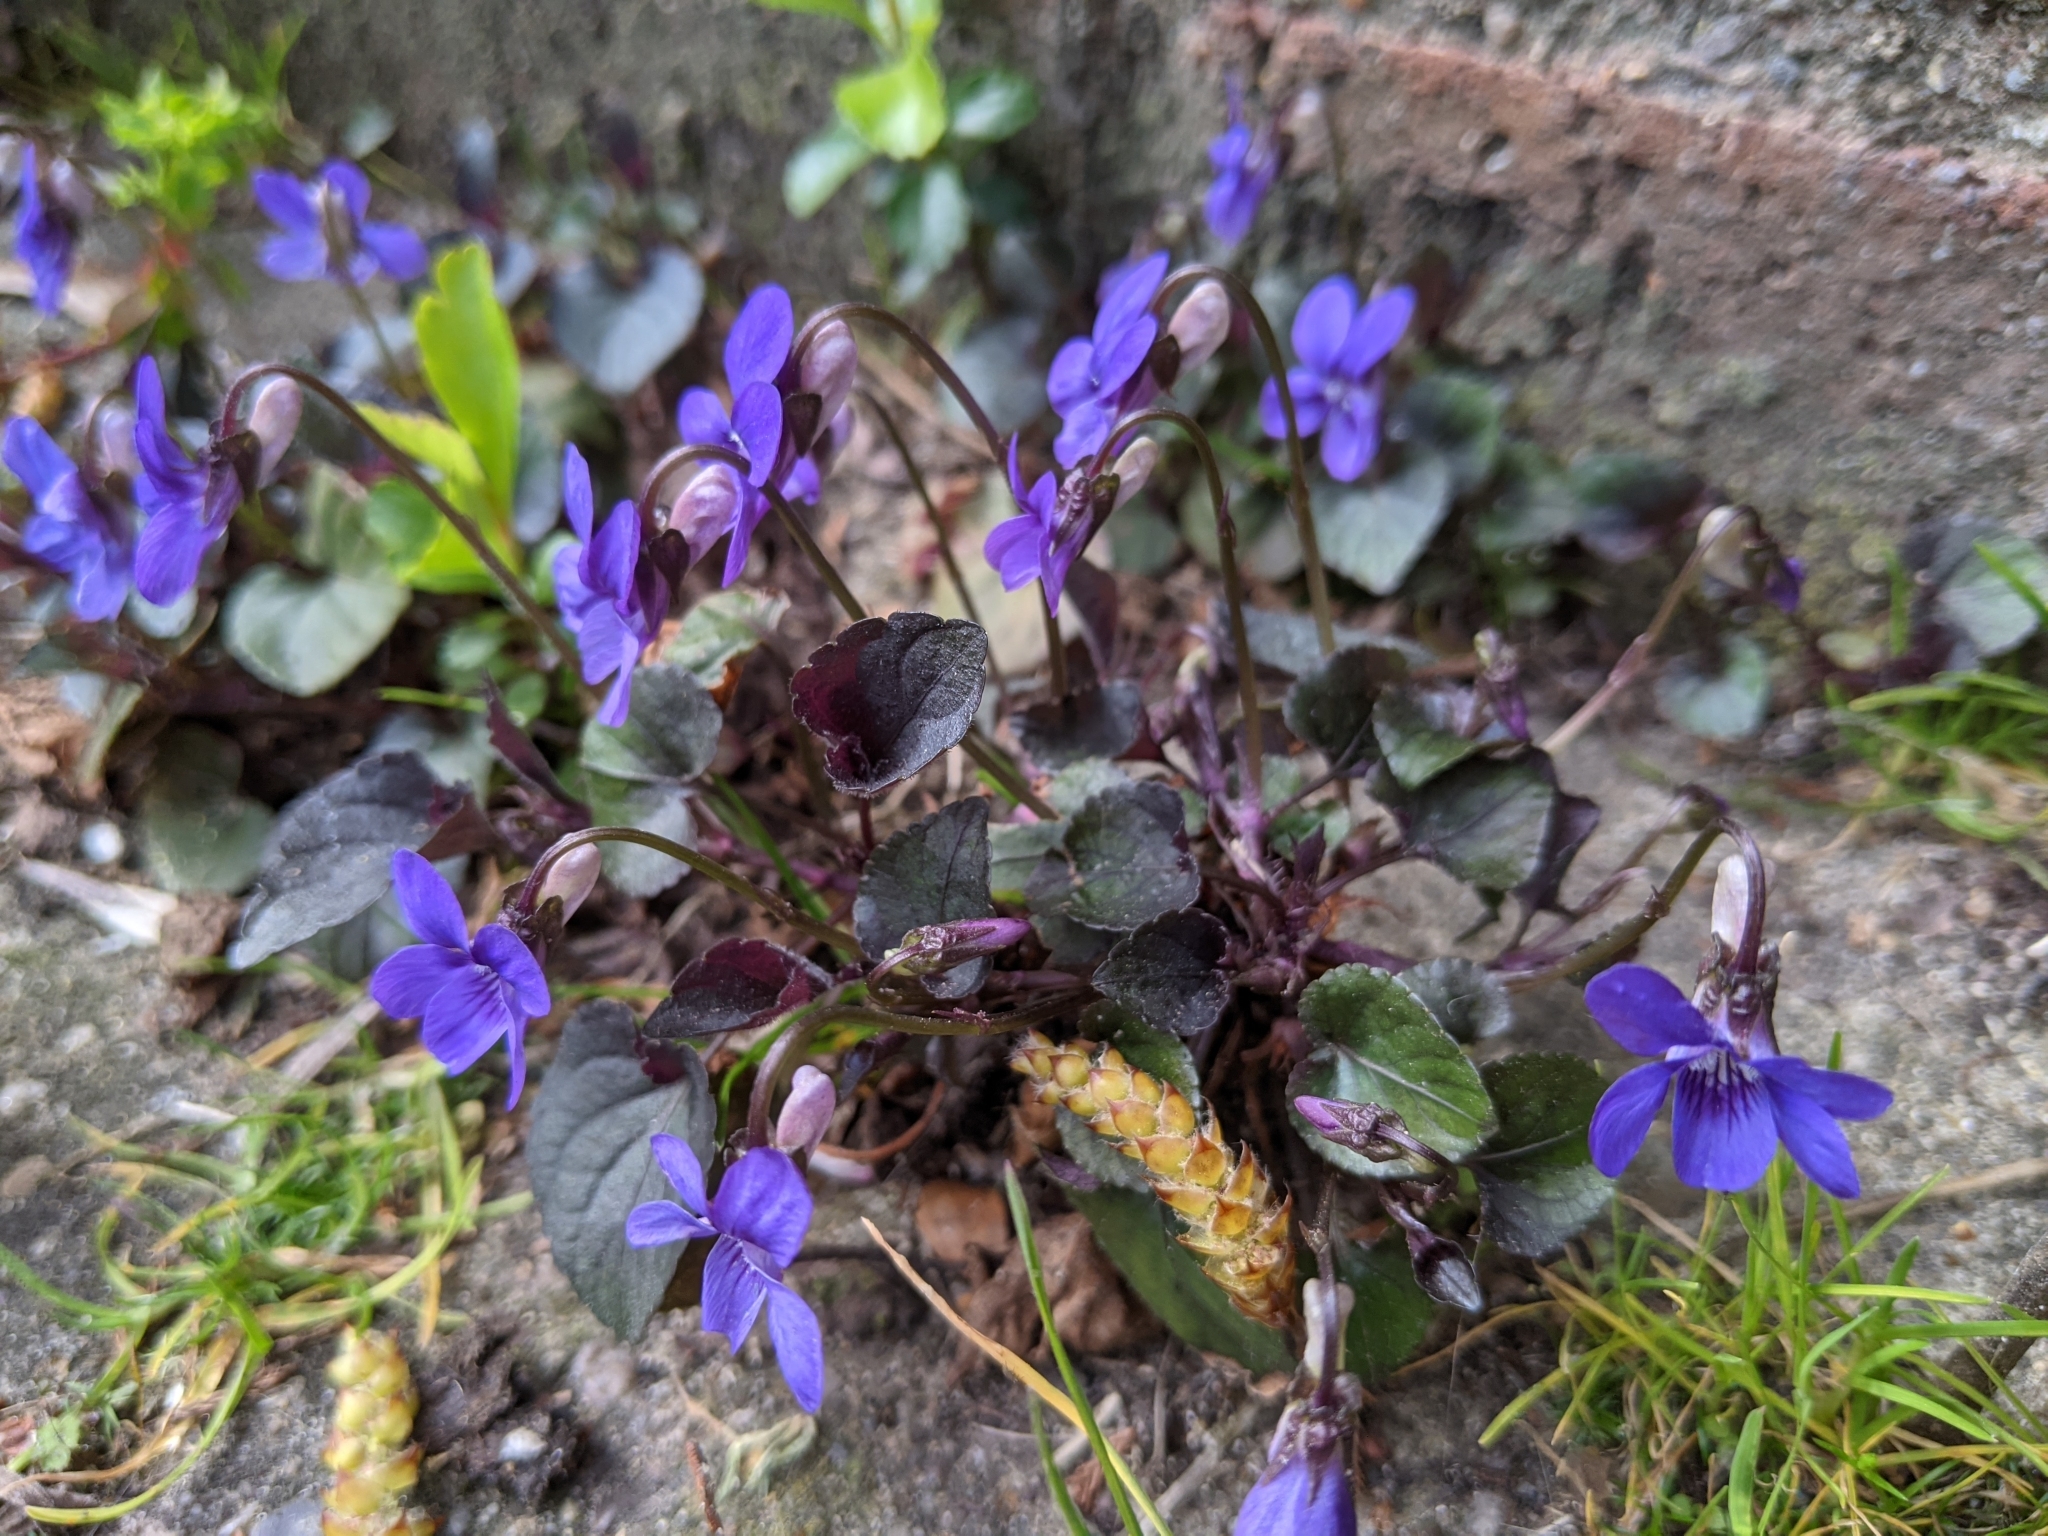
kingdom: Plantae
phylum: Tracheophyta
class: Magnoliopsida
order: Malpighiales
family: Violaceae
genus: Viola
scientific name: Viola riviniana
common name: Common dog-violet
